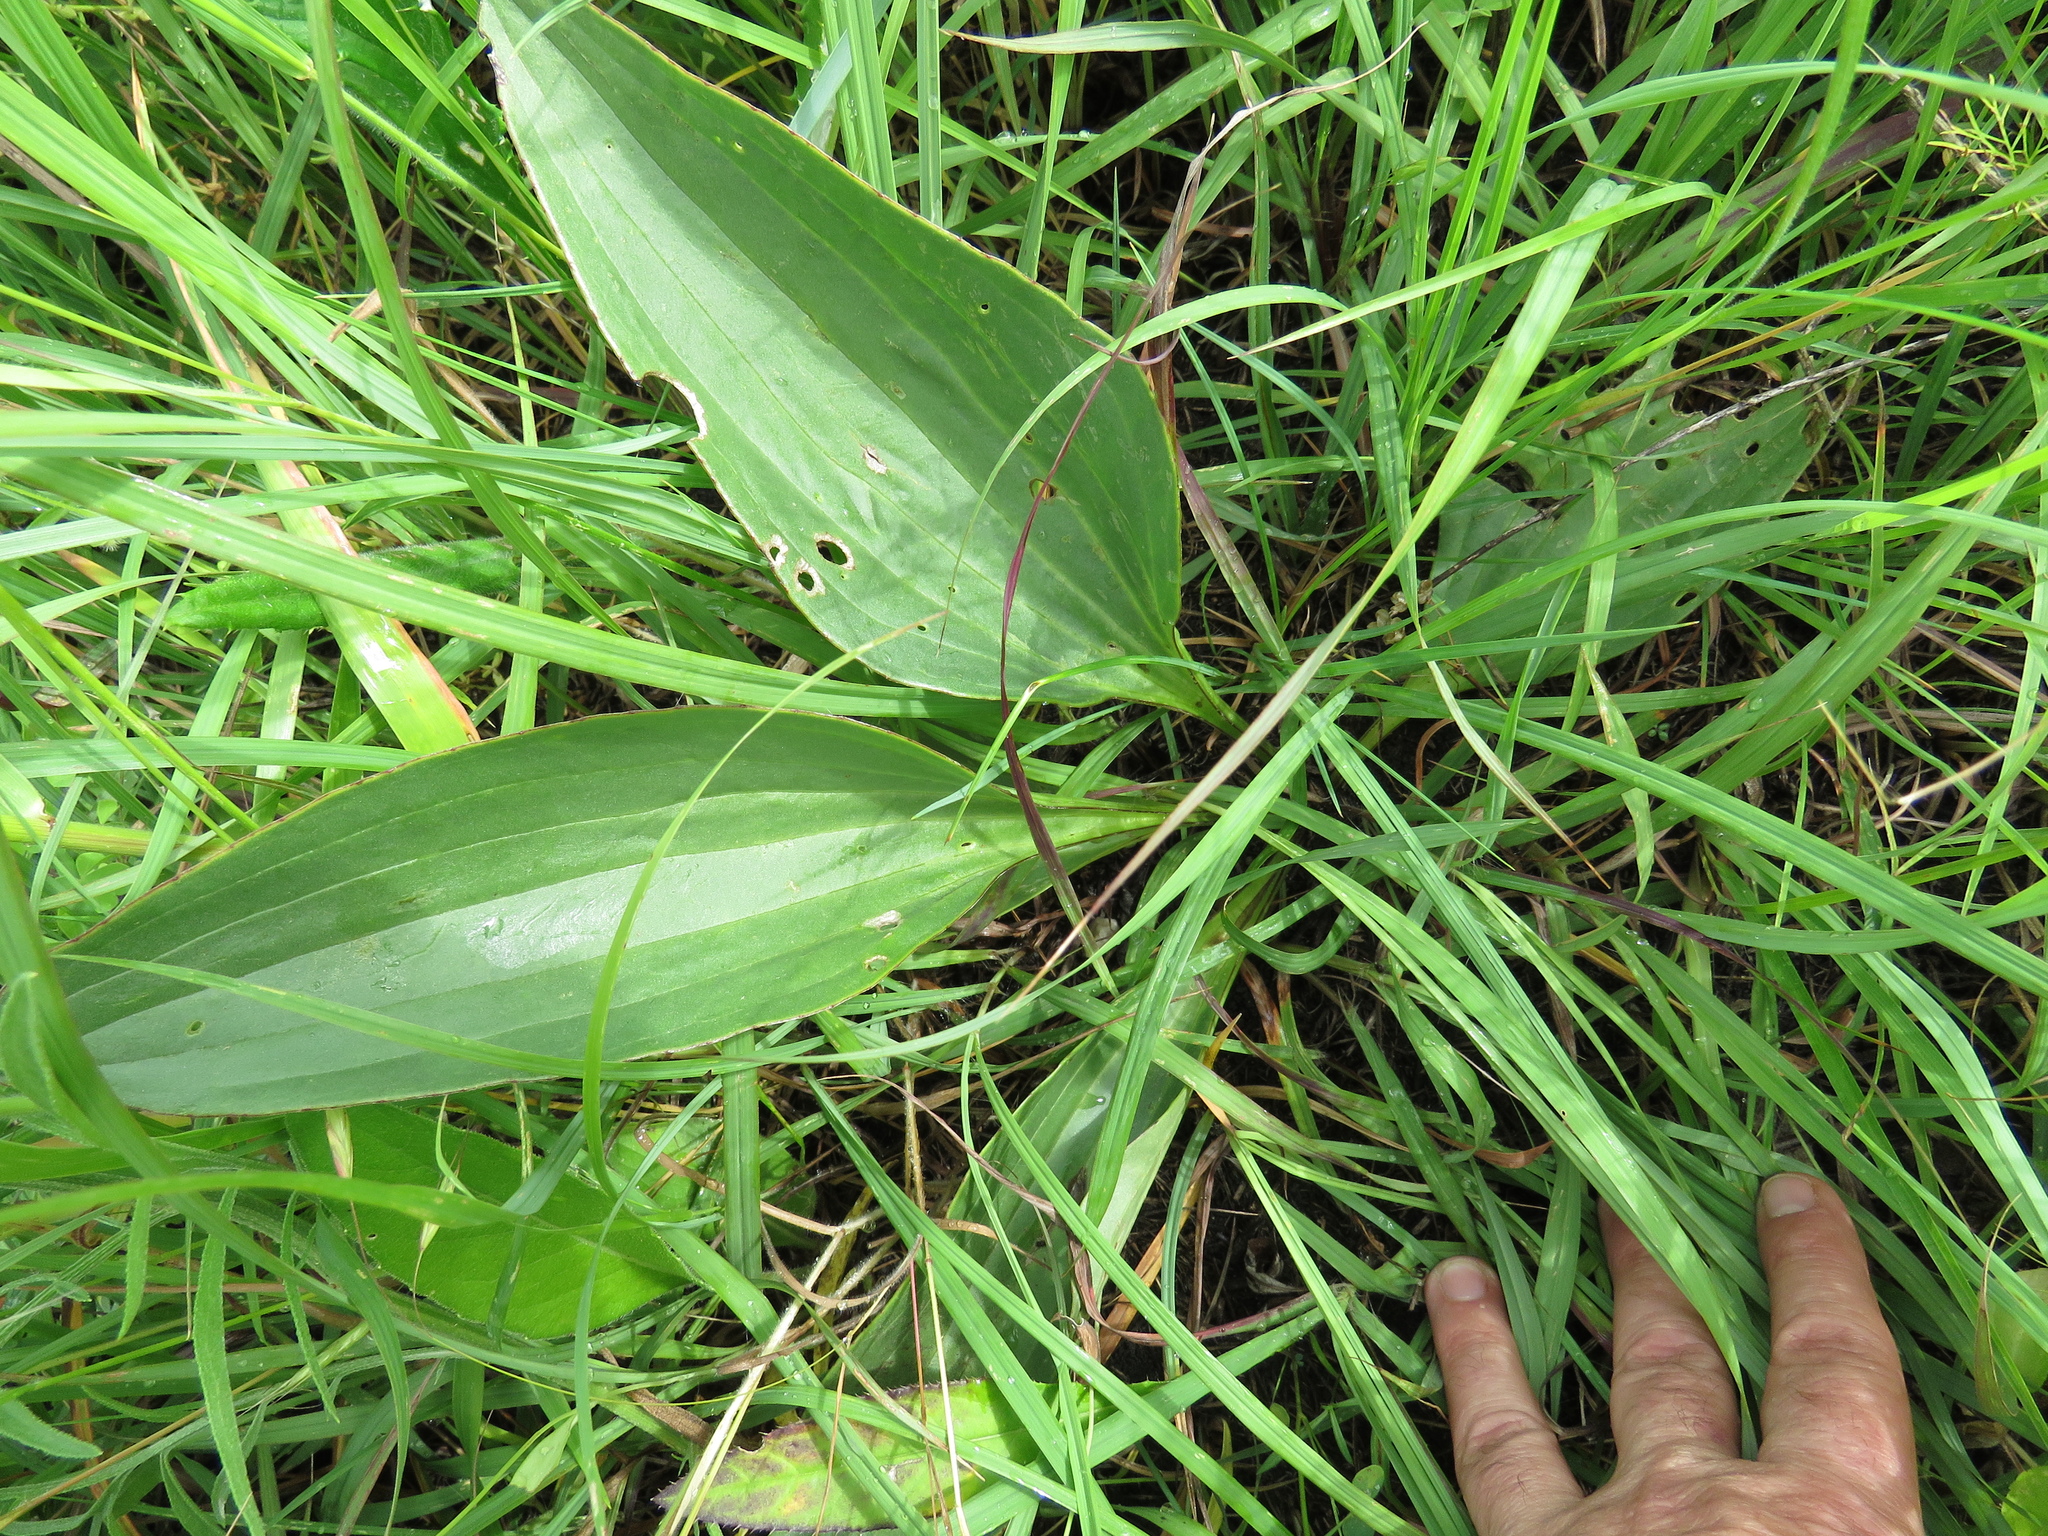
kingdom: Plantae
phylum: Tracheophyta
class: Magnoliopsida
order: Asterales
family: Asteraceae
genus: Arnoglossum
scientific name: Arnoglossum plantagineum
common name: Groove-stemmed indian-plantain
